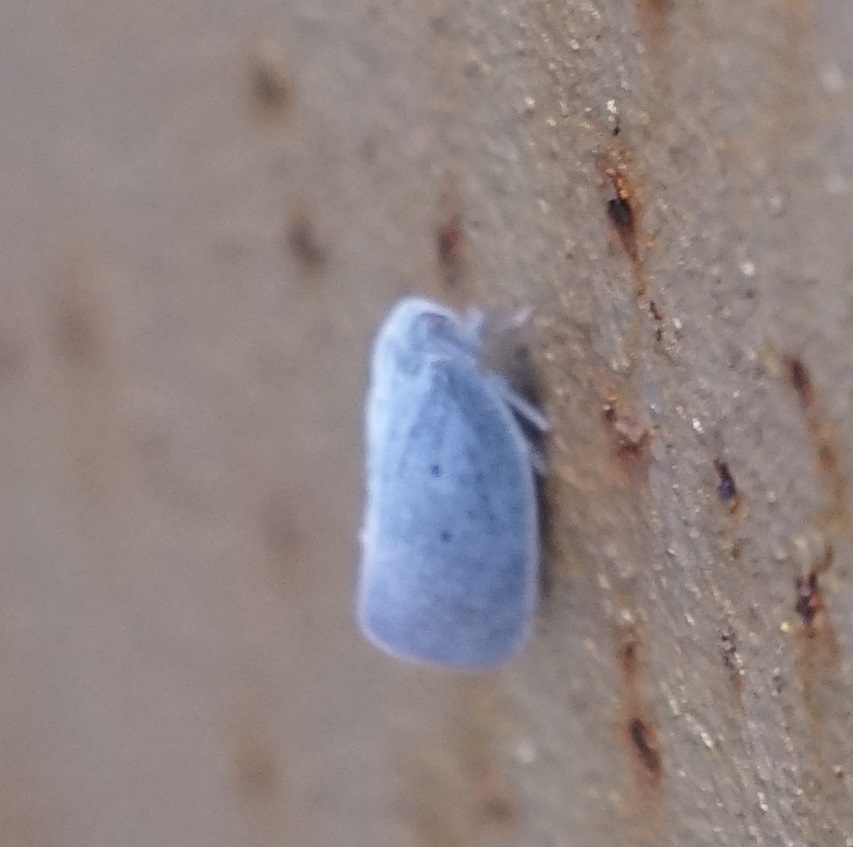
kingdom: Animalia
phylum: Arthropoda
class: Insecta
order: Hemiptera
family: Flatidae
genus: Dworena
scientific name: Dworena hyacintha
